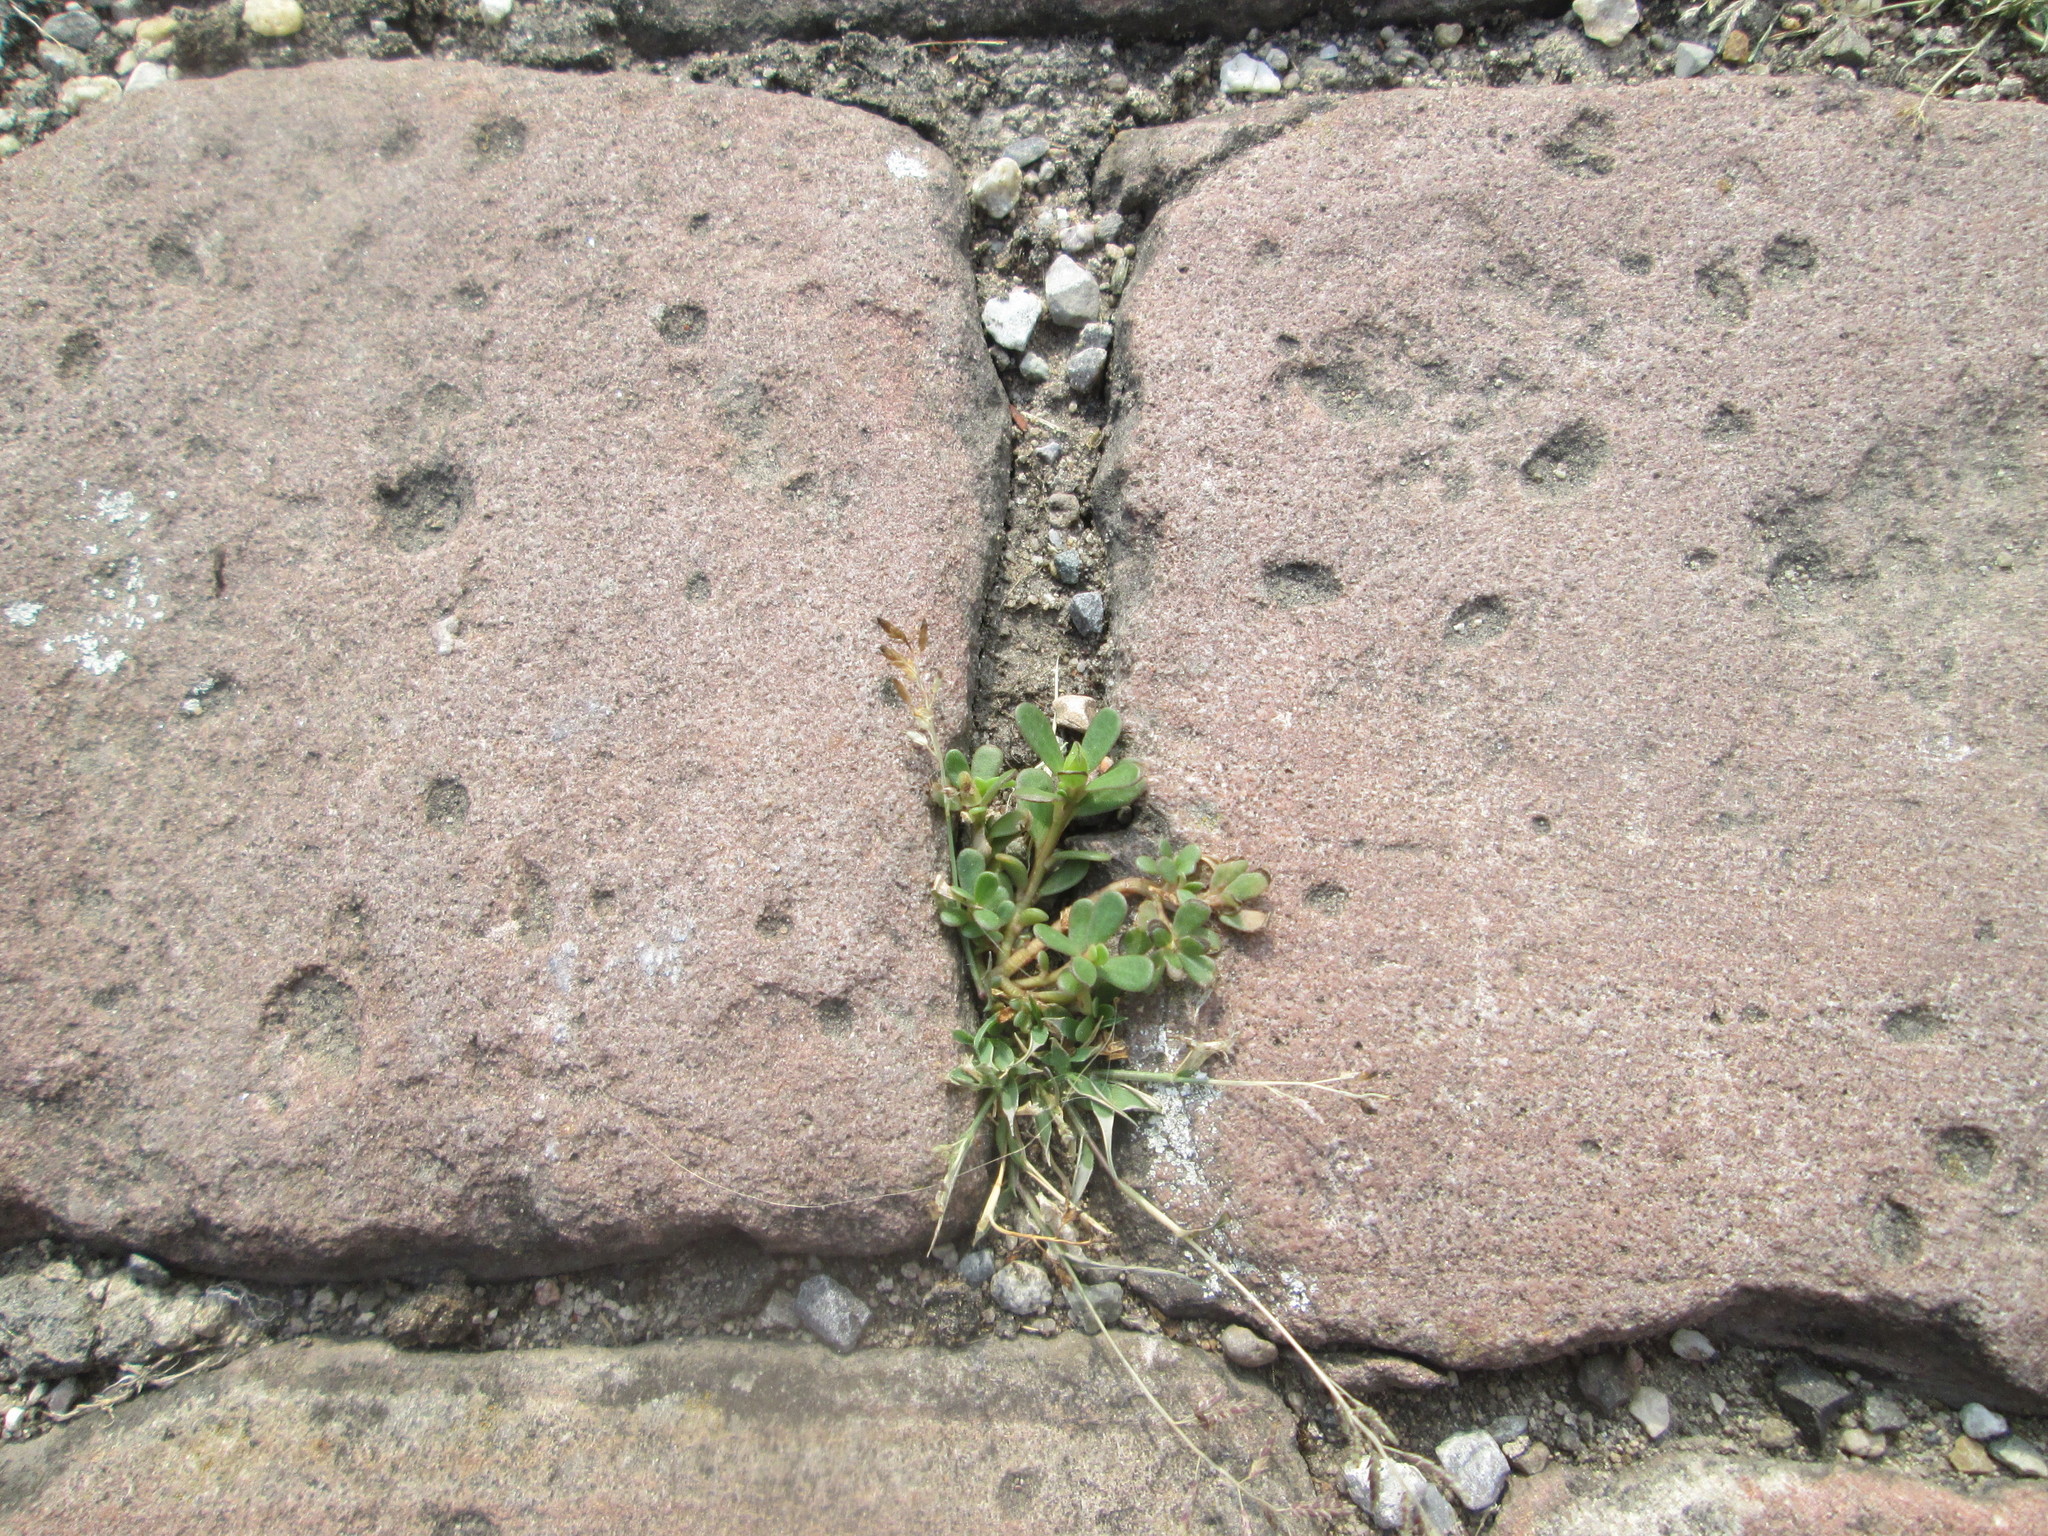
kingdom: Plantae
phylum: Tracheophyta
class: Magnoliopsida
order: Caryophyllales
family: Portulacaceae
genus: Portulaca
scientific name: Portulaca oleracea
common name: Common purslane
